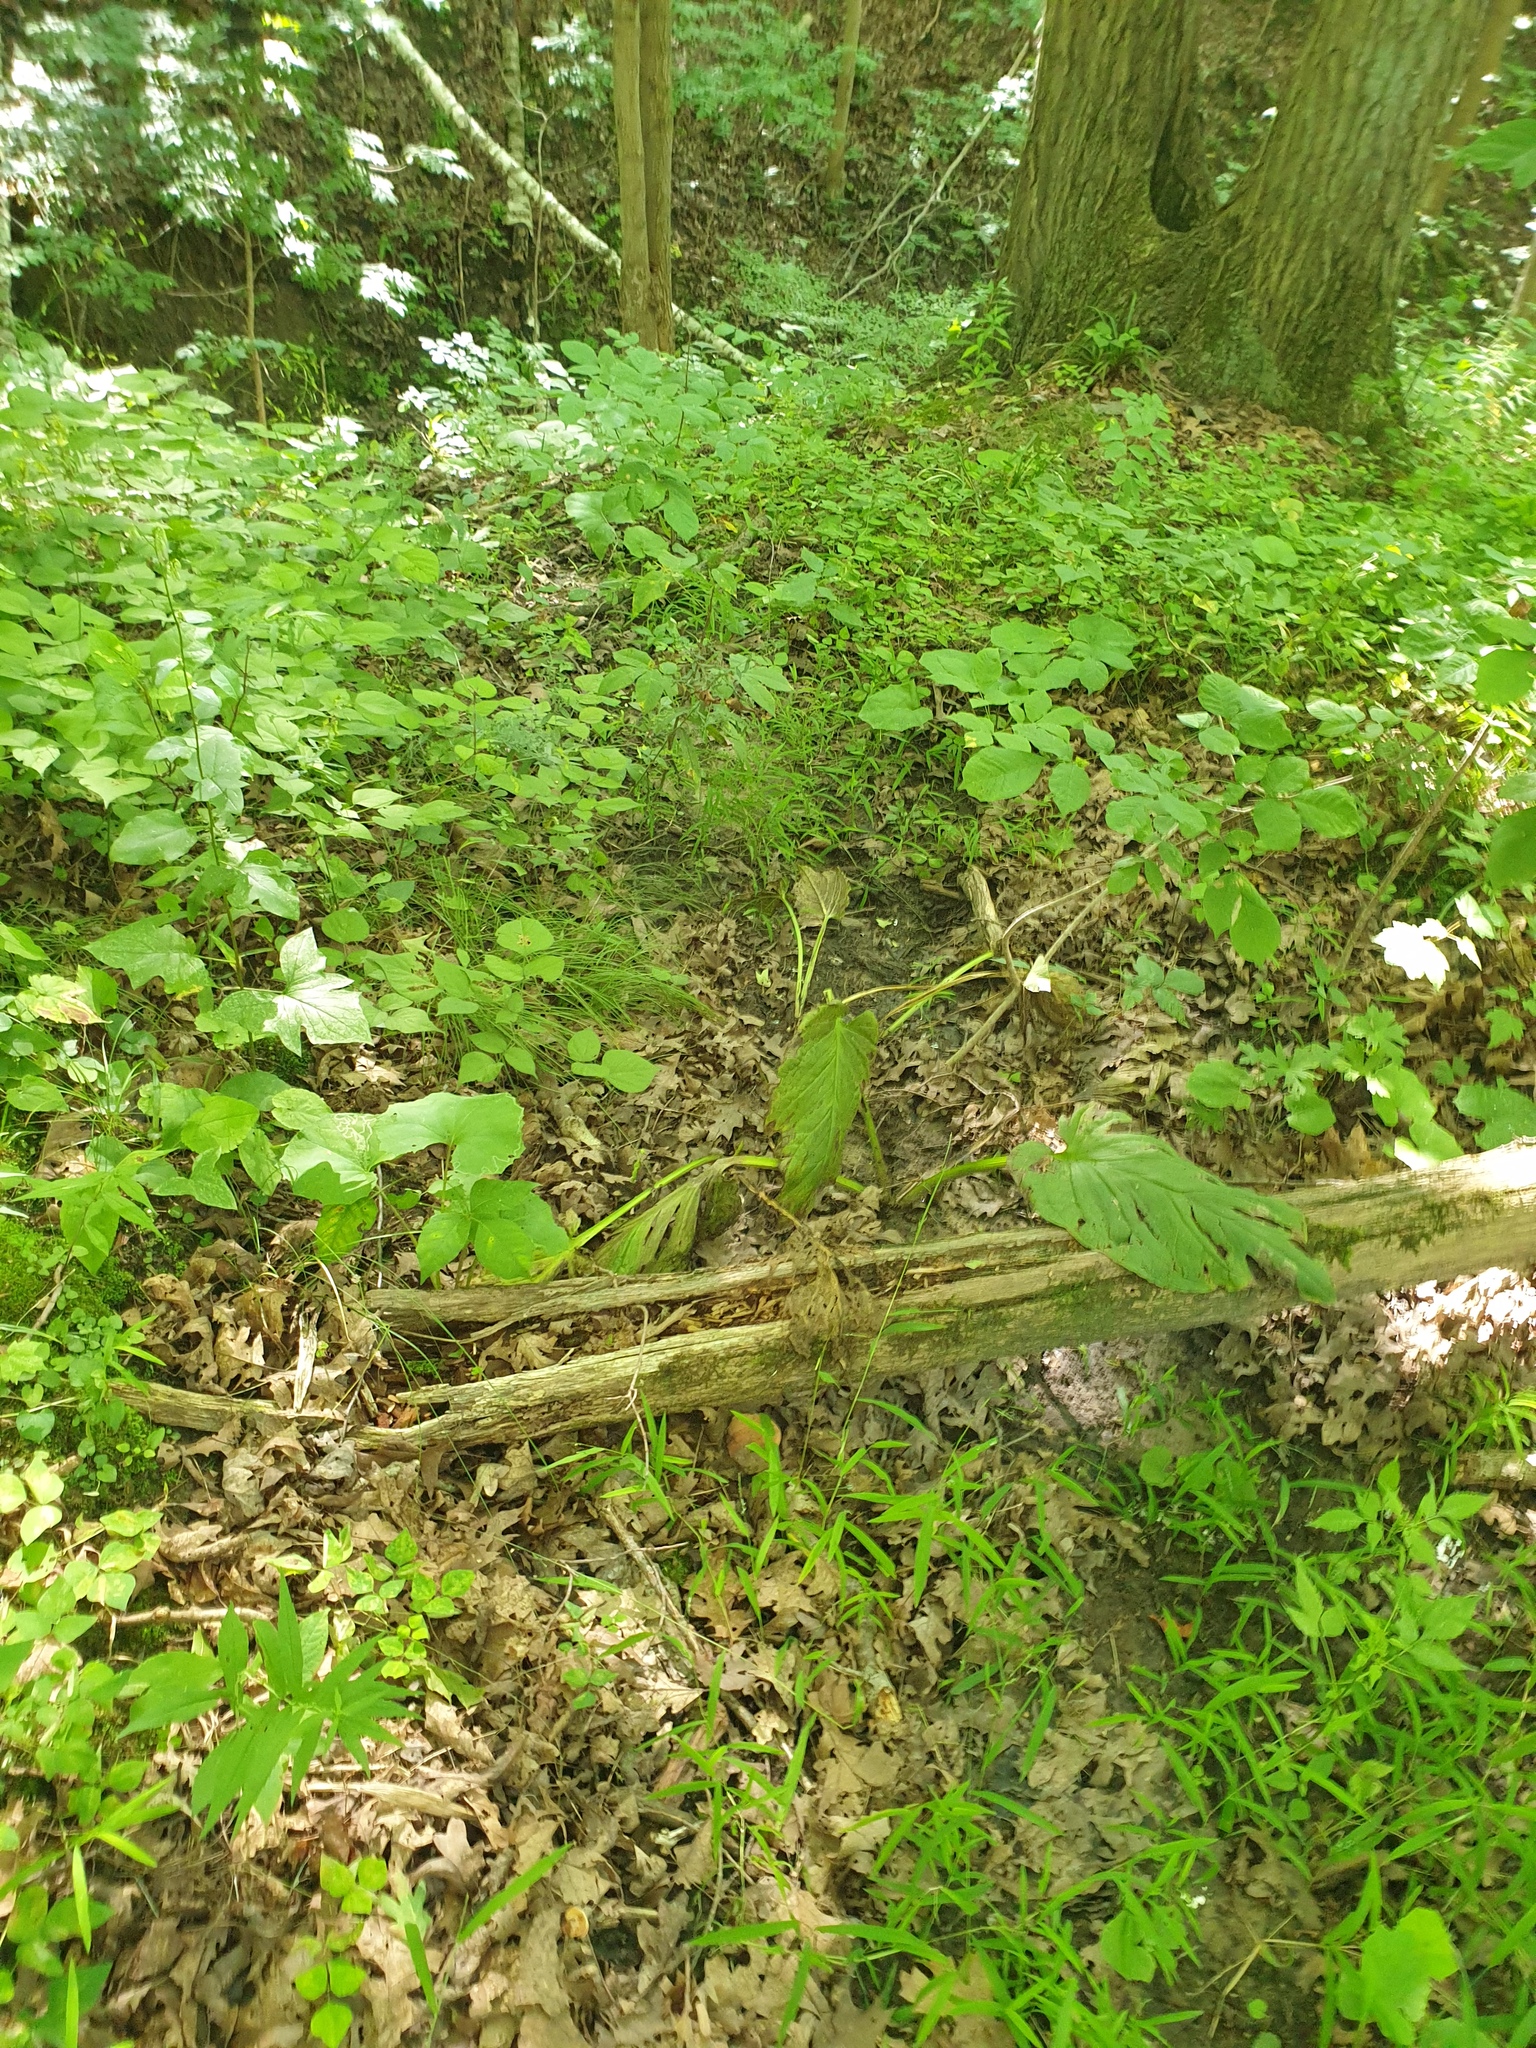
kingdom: Plantae
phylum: Tracheophyta
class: Liliopsida
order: Alismatales
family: Araceae
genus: Symplocarpus
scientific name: Symplocarpus foetidus
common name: Eastern skunk cabbage
